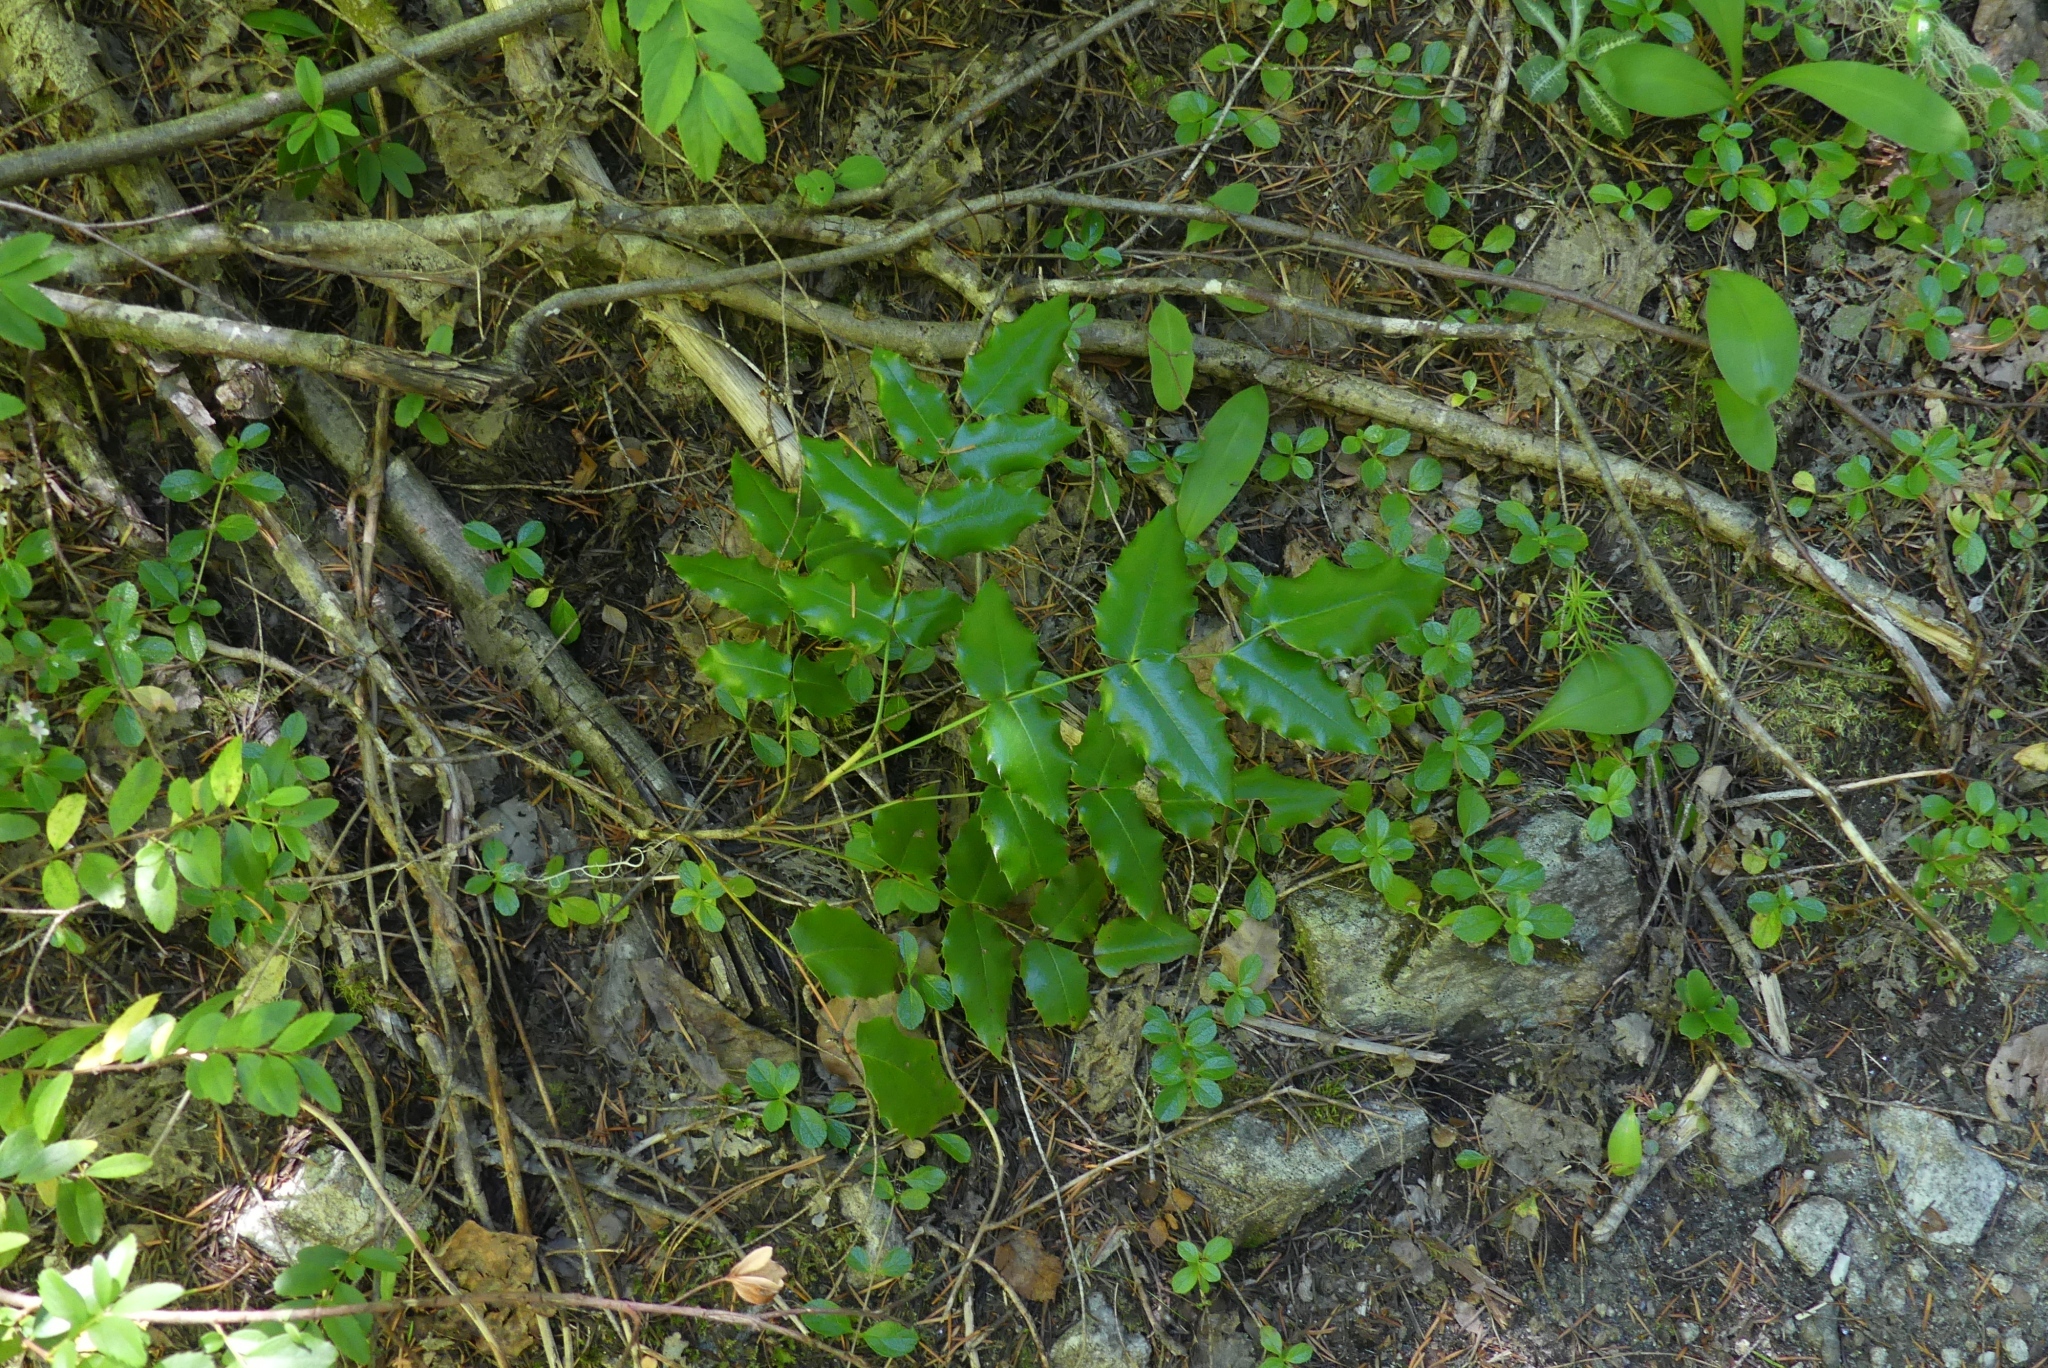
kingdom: Plantae
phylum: Tracheophyta
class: Magnoliopsida
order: Ranunculales
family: Berberidaceae
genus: Mahonia
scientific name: Mahonia aquifolium
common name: Oregon-grape
